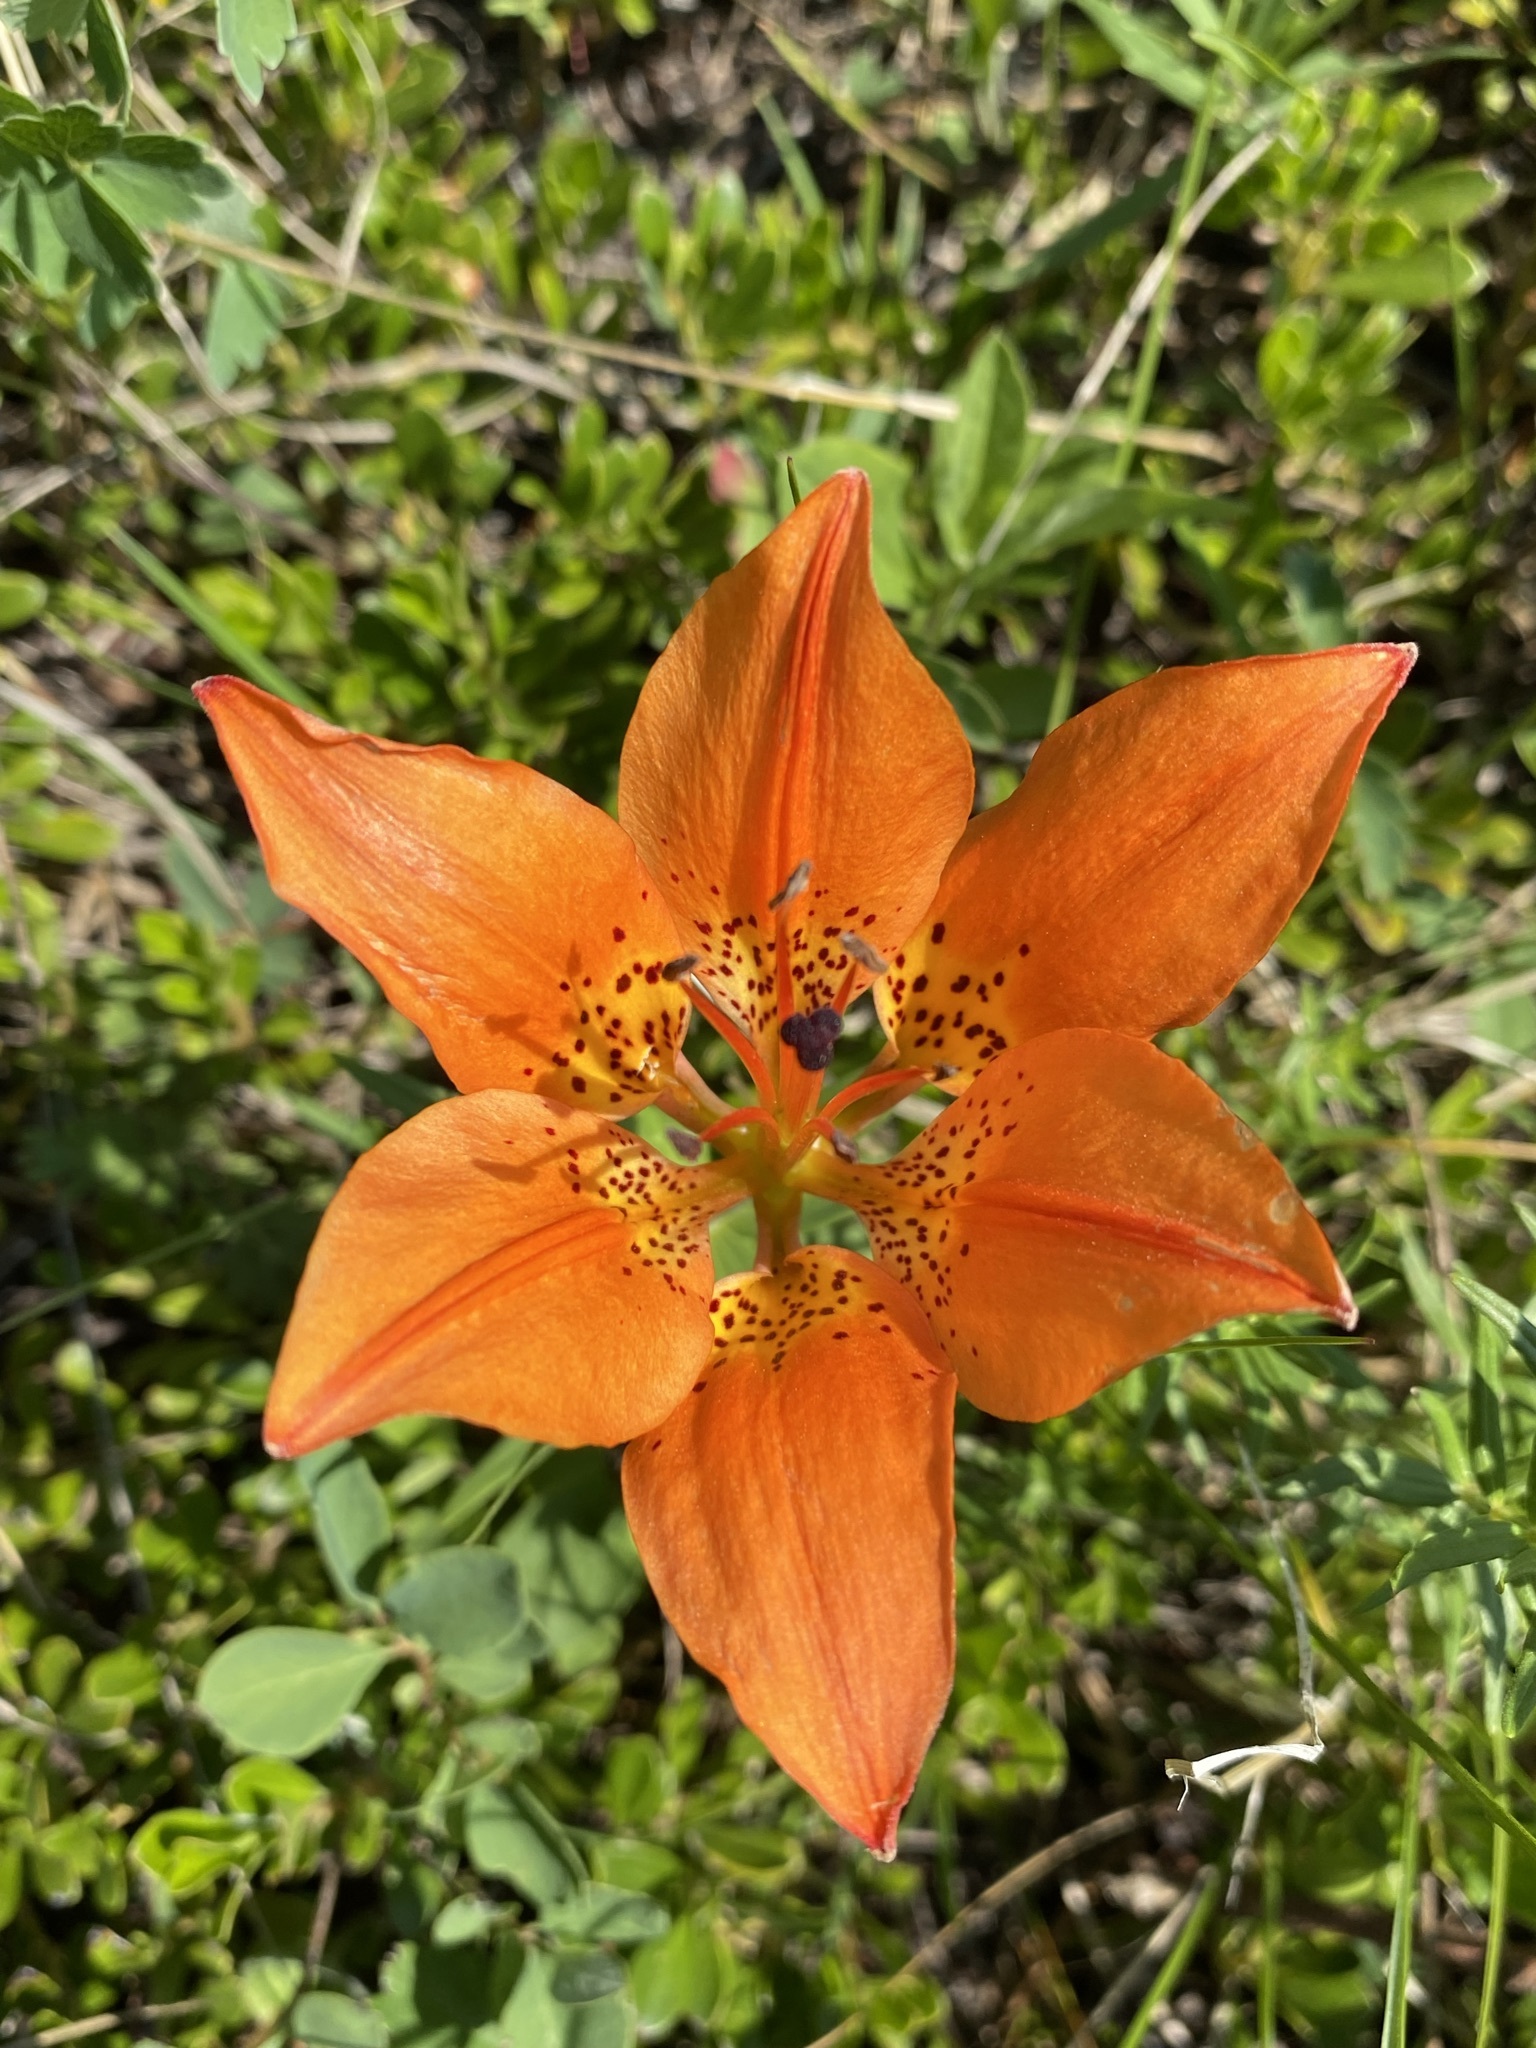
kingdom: Plantae
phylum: Tracheophyta
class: Liliopsida
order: Liliales
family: Liliaceae
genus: Lilium
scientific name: Lilium philadelphicum
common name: Red lily
